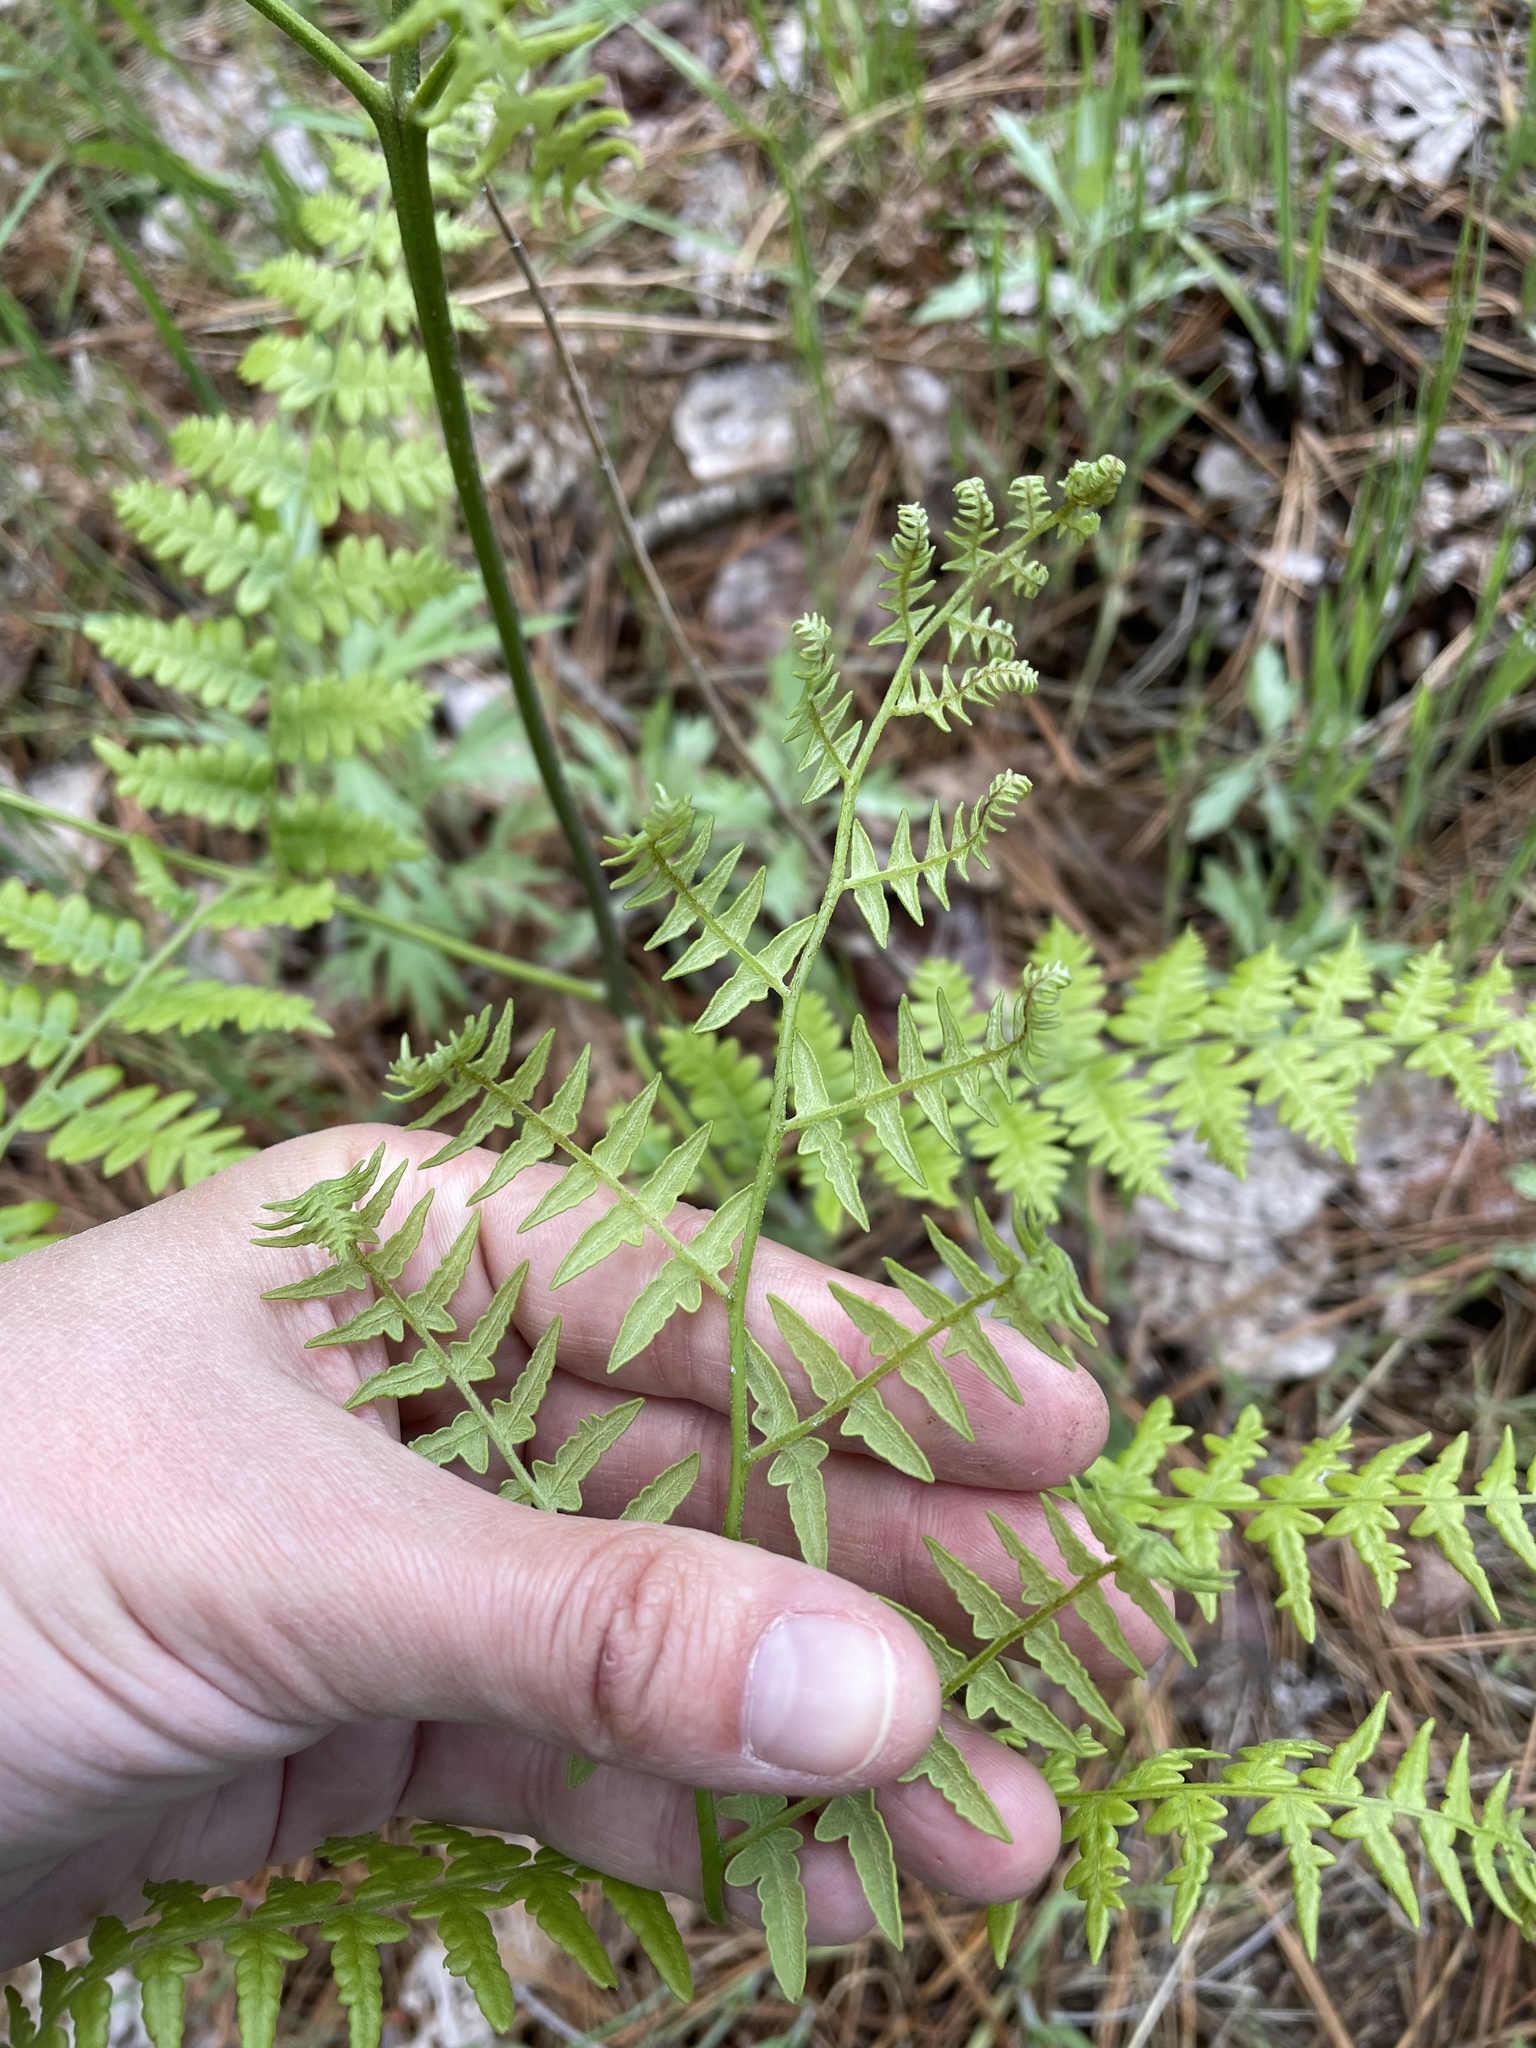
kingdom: Plantae
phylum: Tracheophyta
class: Polypodiopsida
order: Polypodiales
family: Dennstaedtiaceae
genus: Pteridium
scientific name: Pteridium aquilinum
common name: Bracken
